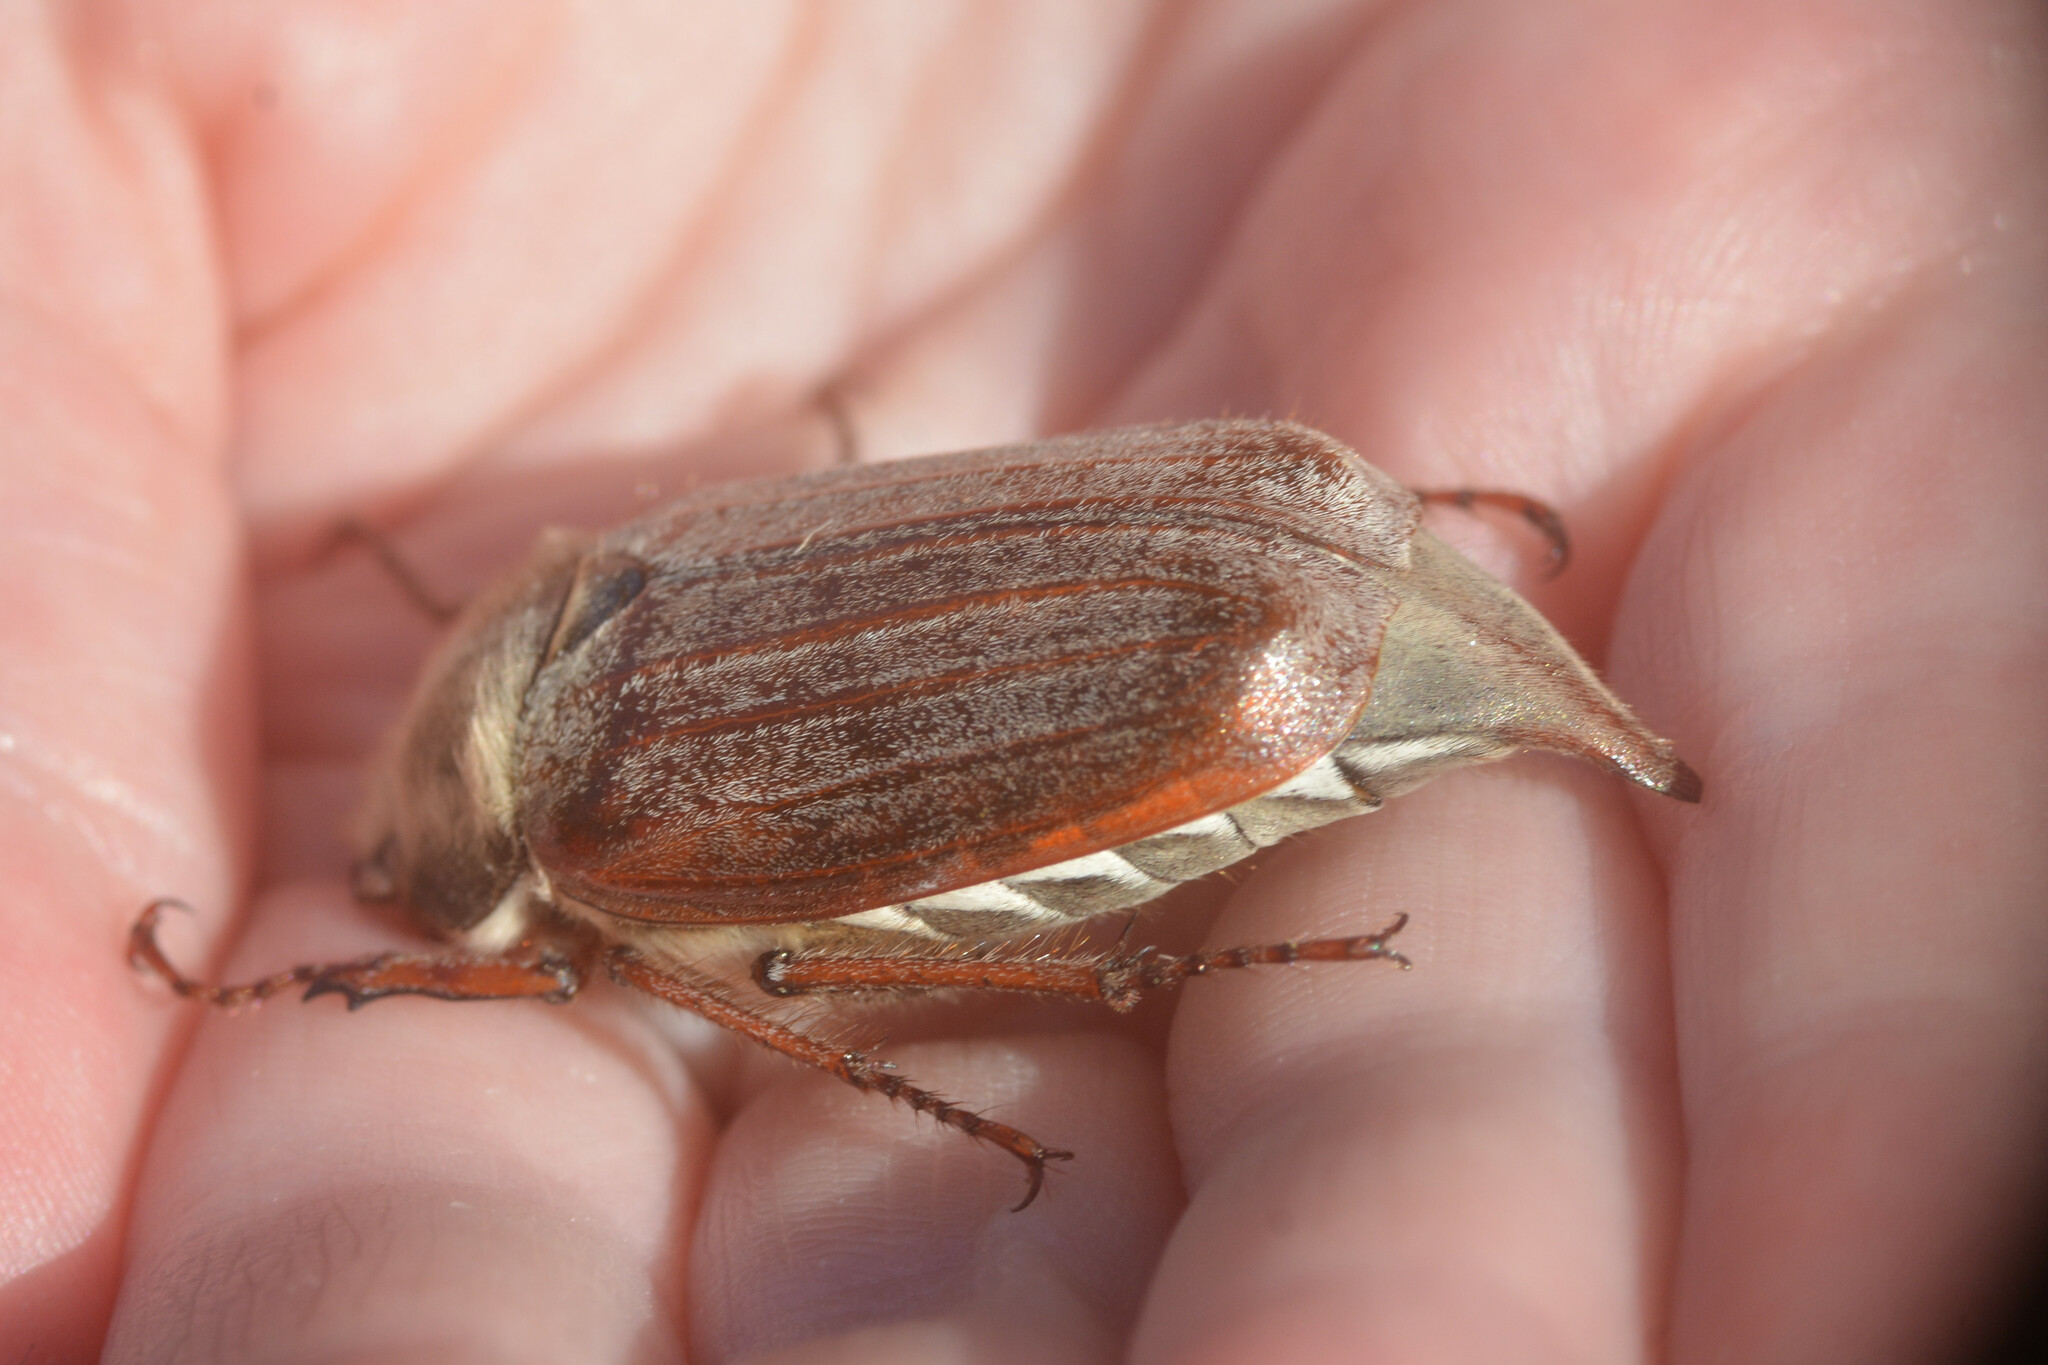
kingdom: Animalia
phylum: Arthropoda
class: Insecta
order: Coleoptera
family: Scarabaeidae
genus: Melolontha
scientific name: Melolontha melolontha
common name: Cockchafer maybeetle
